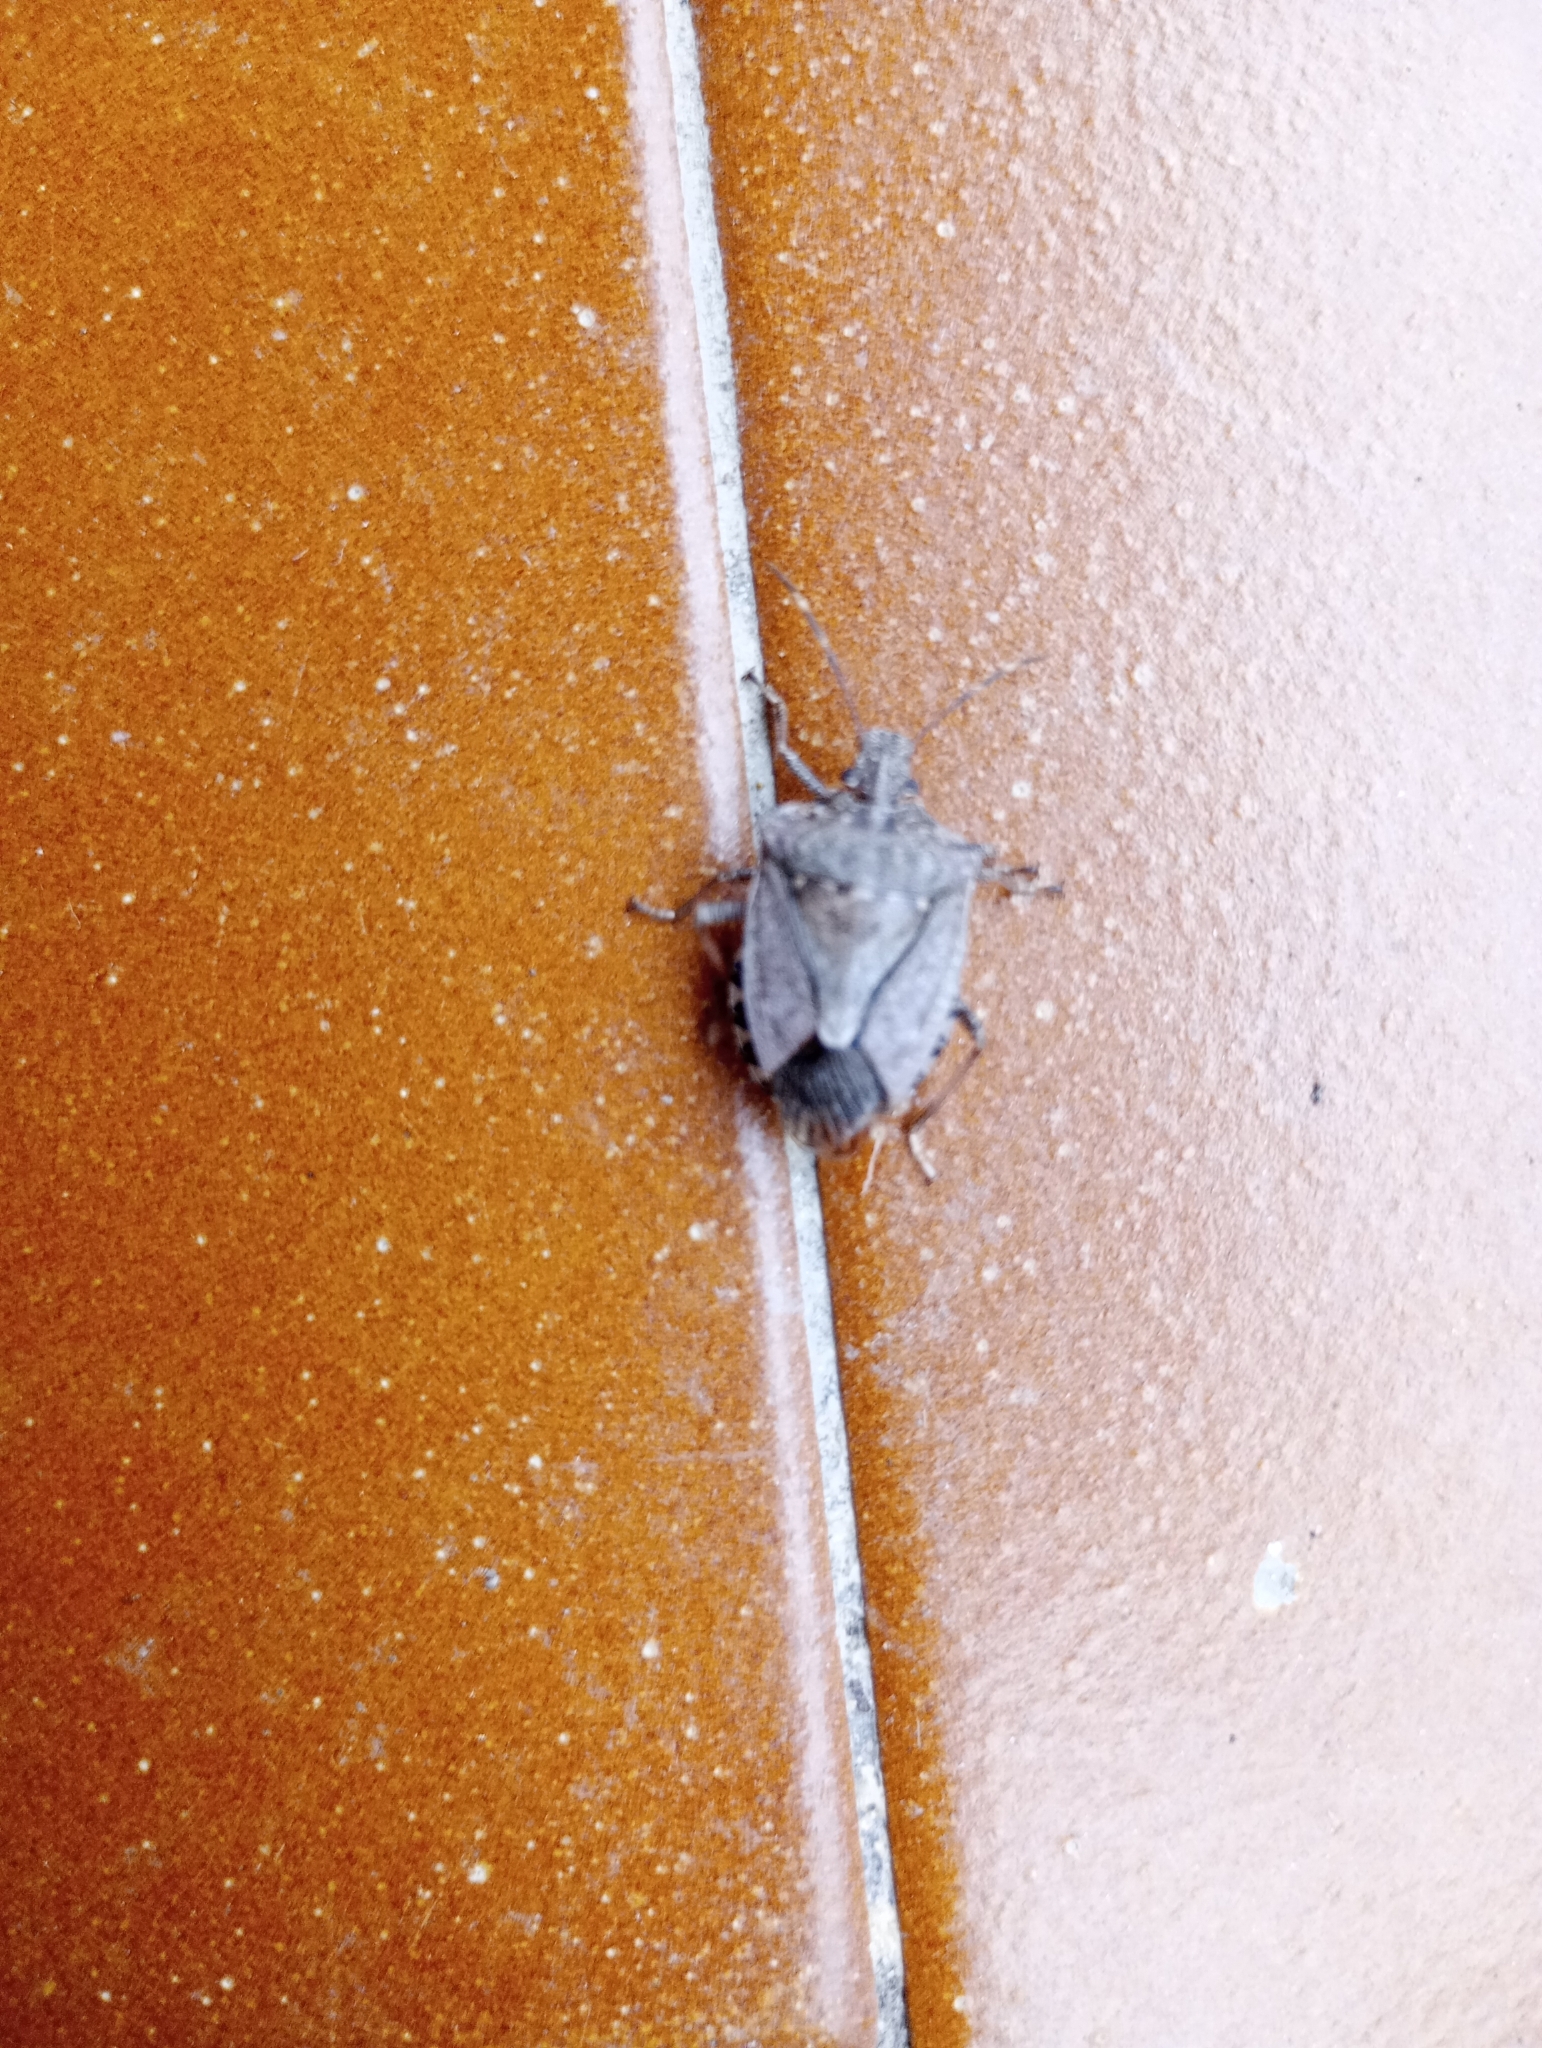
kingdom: Animalia
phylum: Arthropoda
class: Insecta
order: Hemiptera
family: Pentatomidae
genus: Halyomorpha
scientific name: Halyomorpha halys
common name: Brown marmorated stink bug
